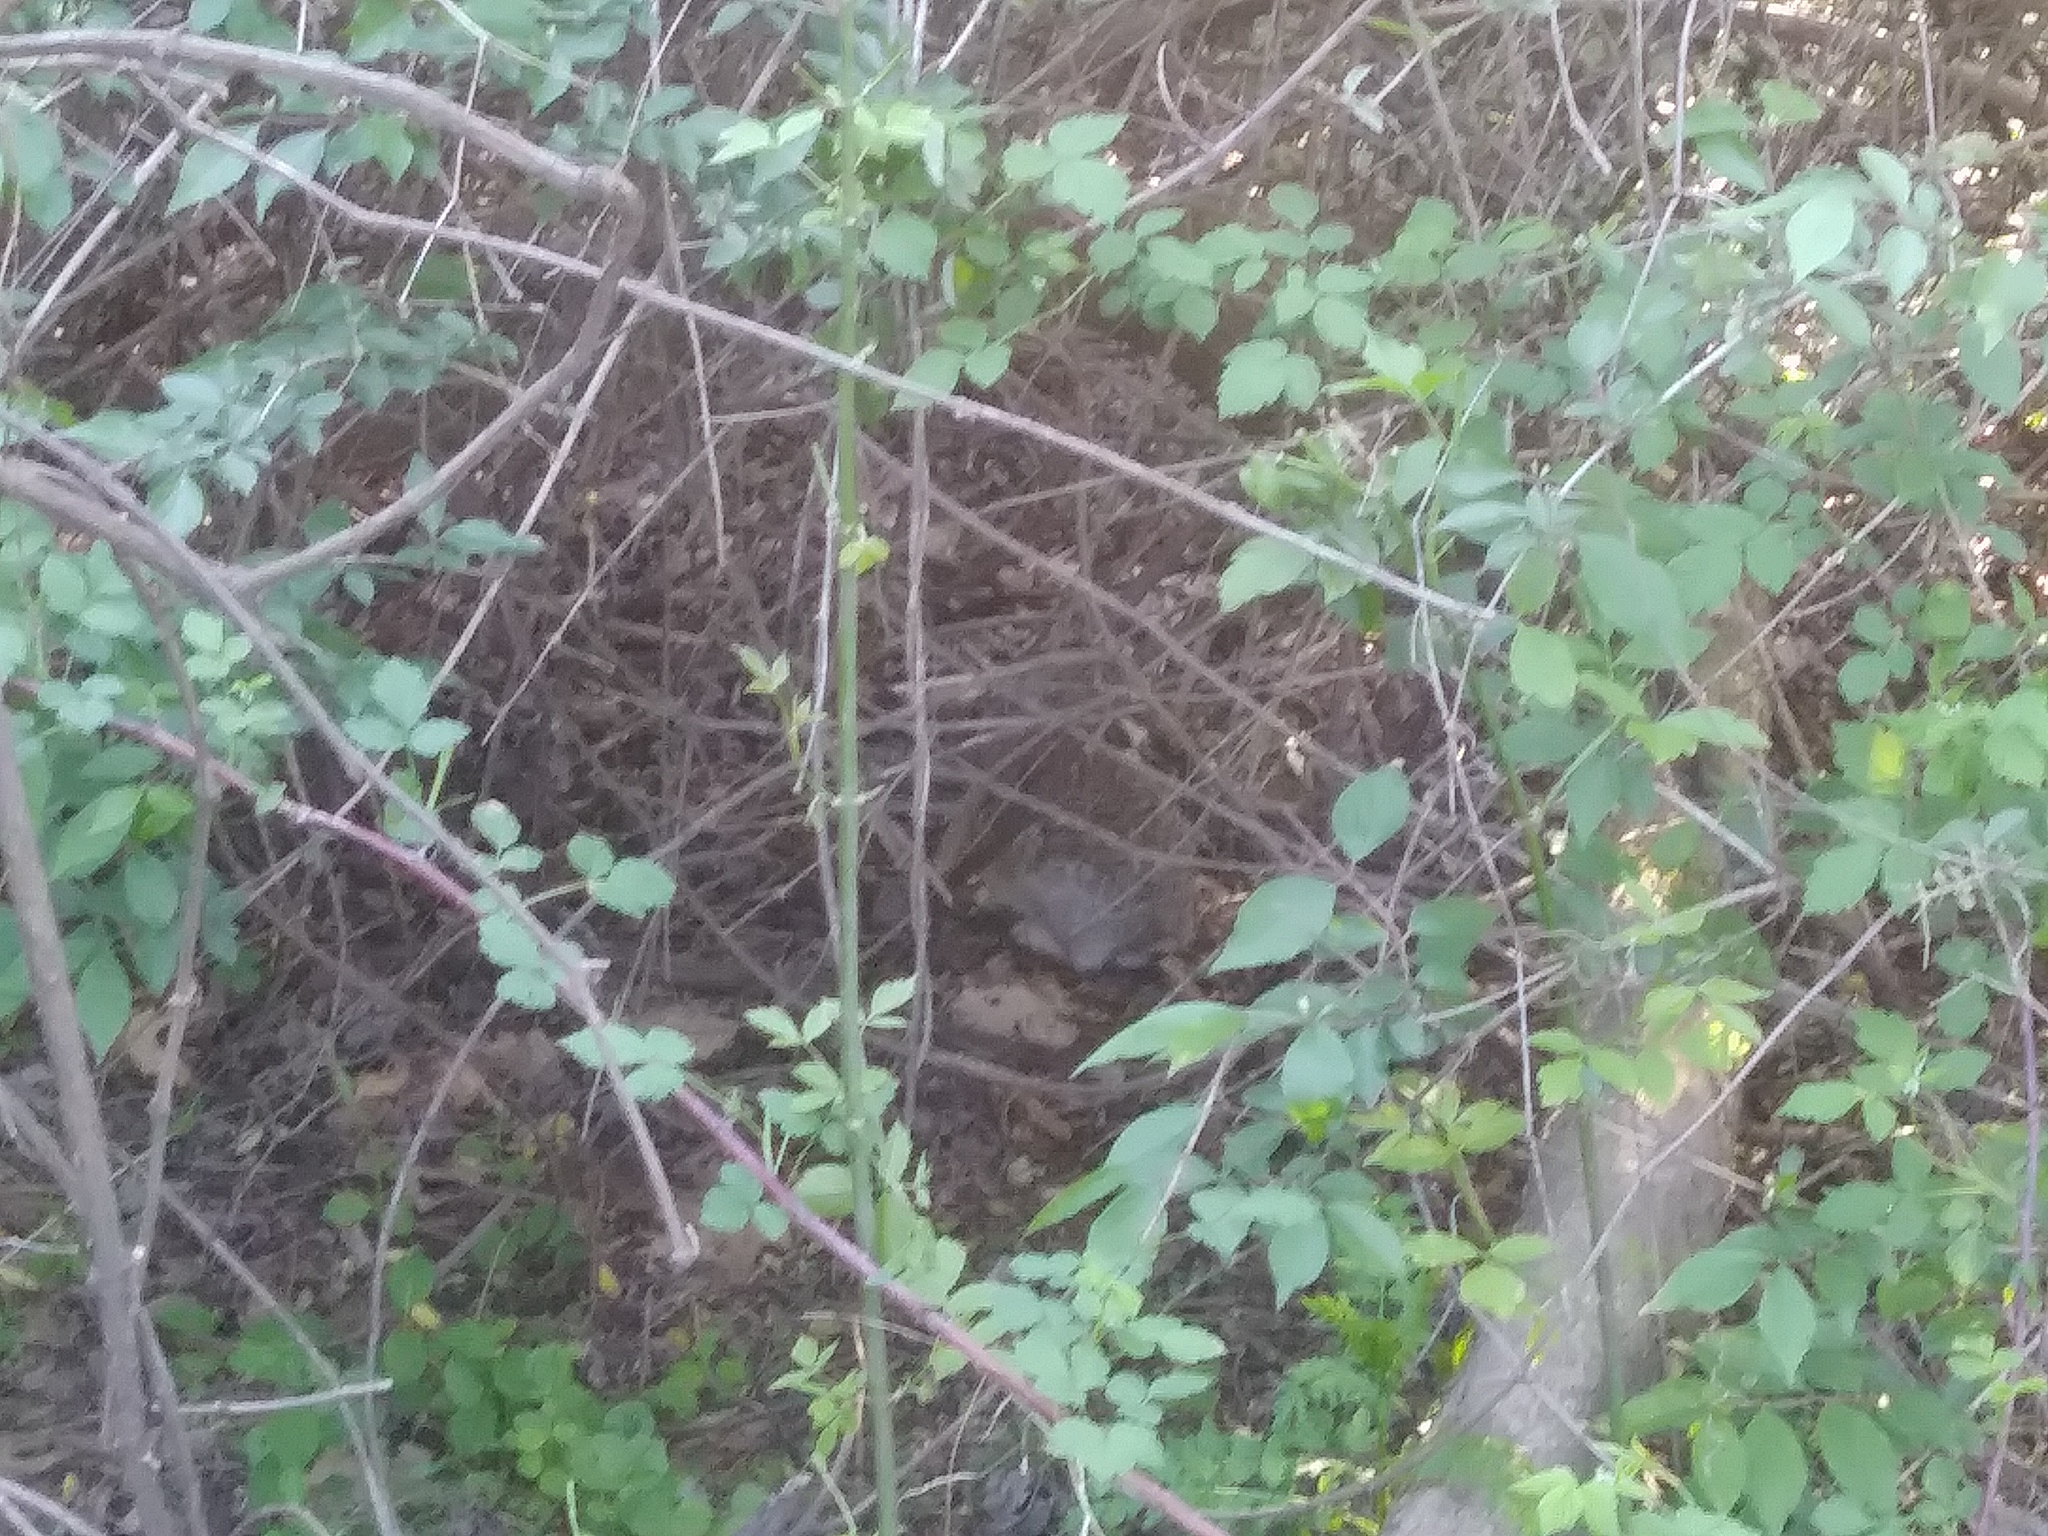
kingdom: Animalia
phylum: Chordata
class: Mammalia
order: Lagomorpha
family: Leporidae
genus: Sylvilagus
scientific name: Sylvilagus floridanus
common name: Eastern cottontail
